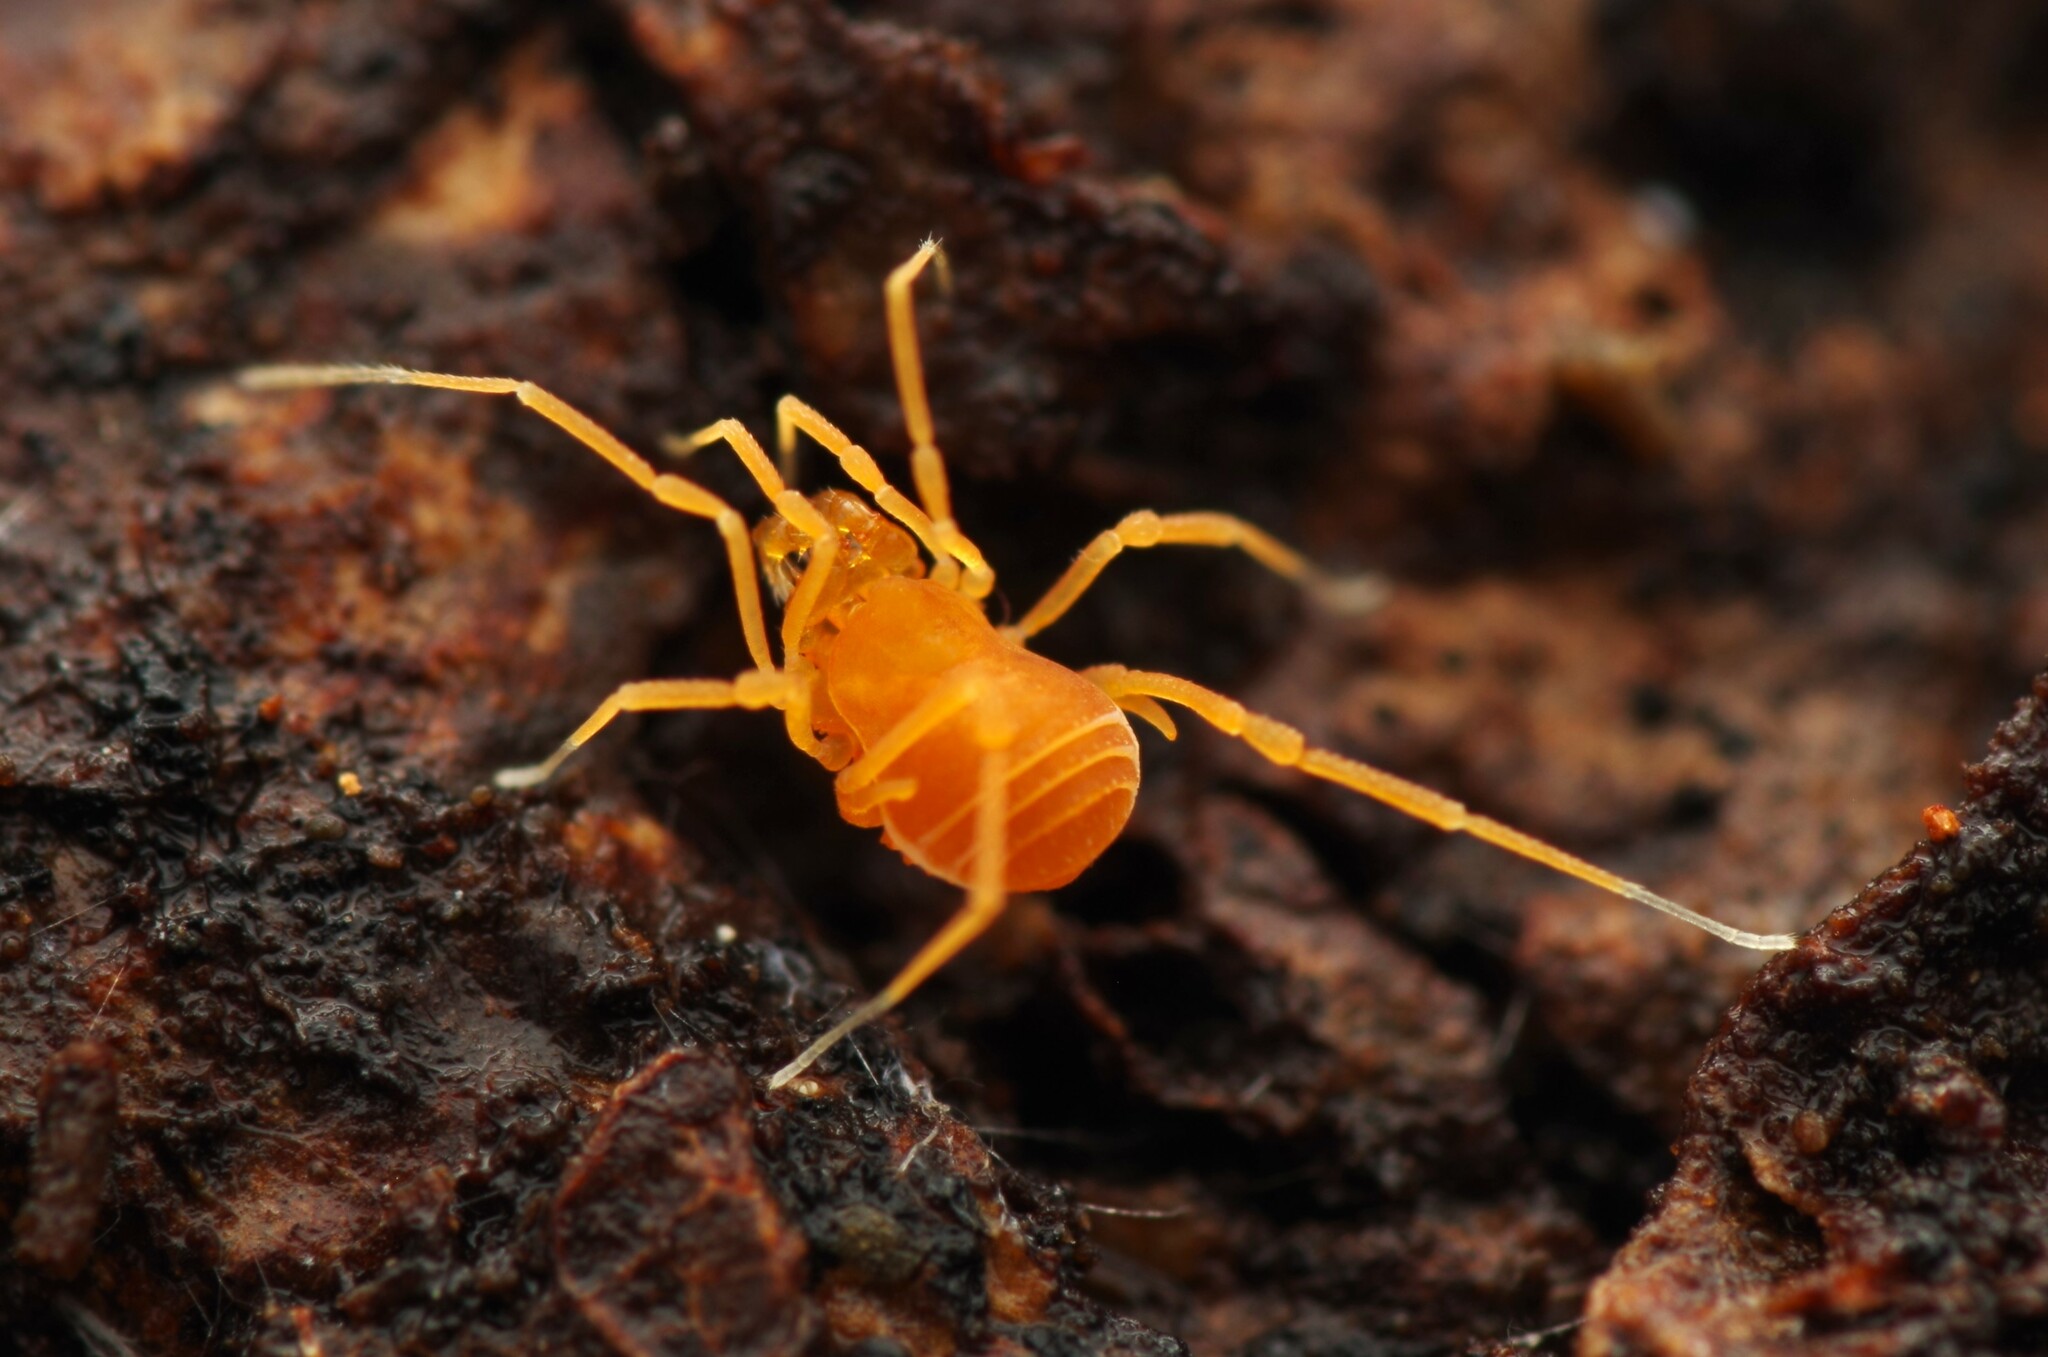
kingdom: Animalia
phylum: Arthropoda
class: Arachnida
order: Opiliones
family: Phalangodidae
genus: Scotolemon
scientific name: Scotolemon doriae
